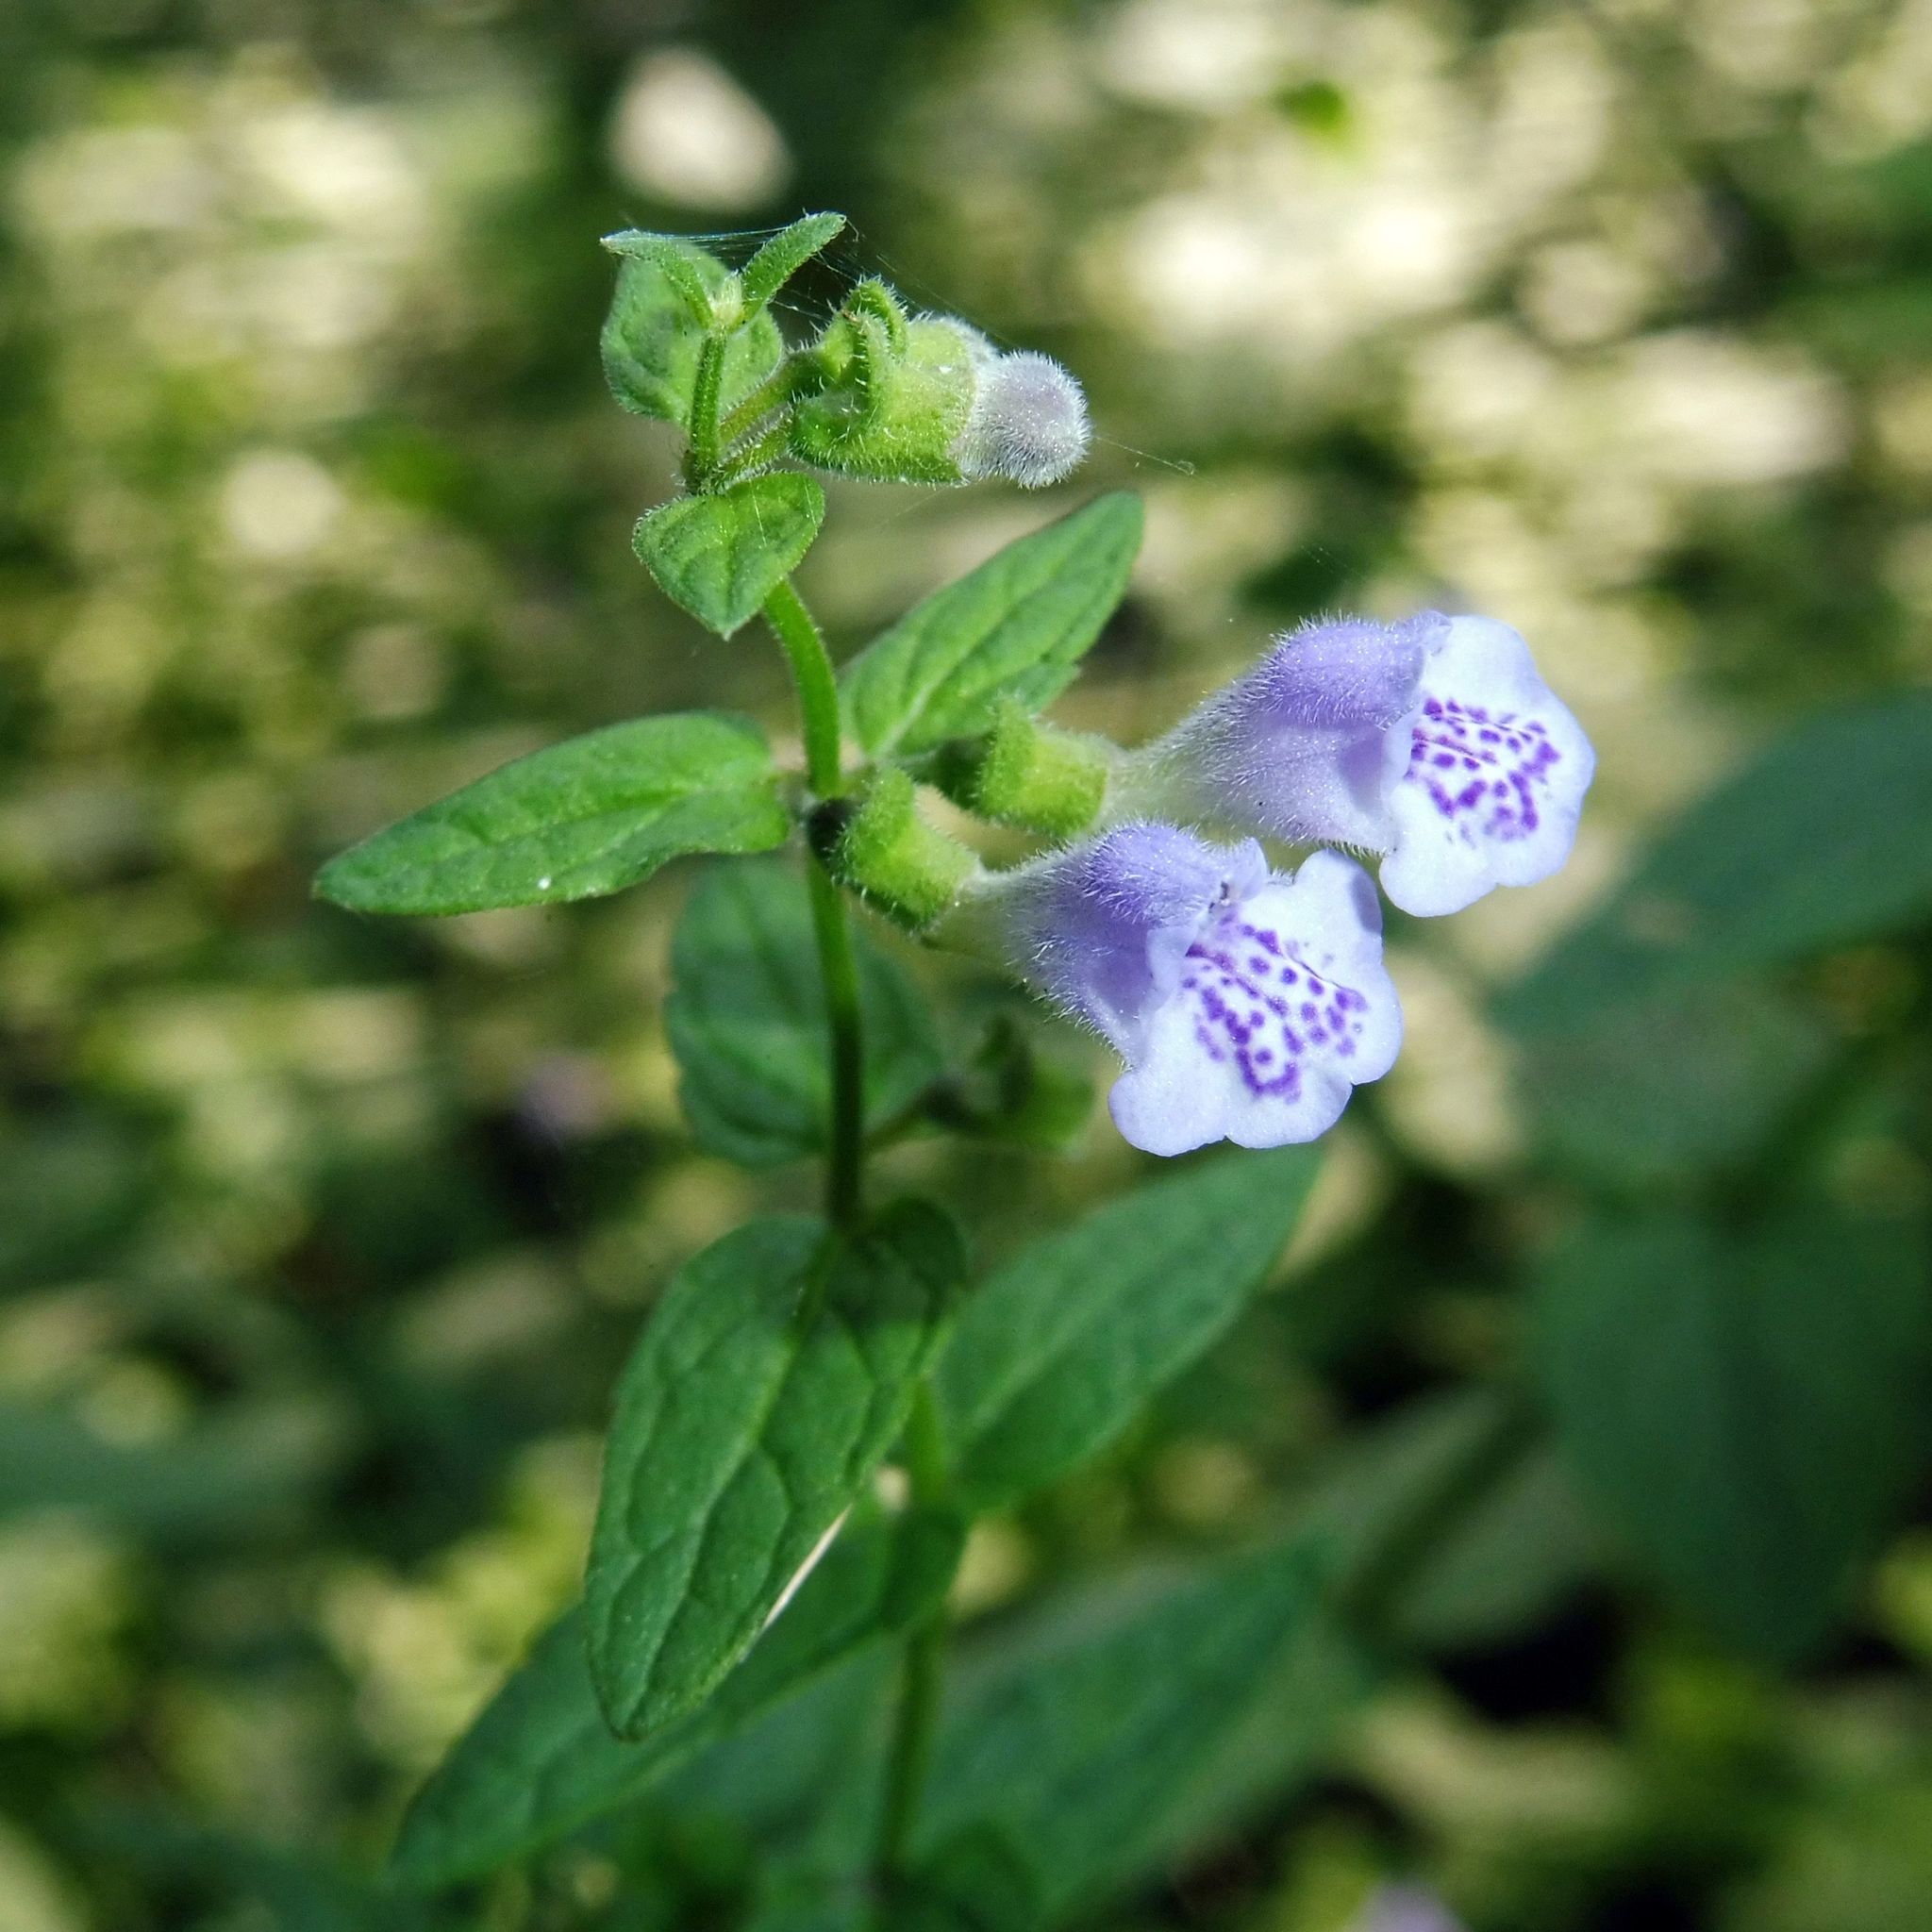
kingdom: Plantae
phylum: Tracheophyta
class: Magnoliopsida
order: Lamiales
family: Lamiaceae
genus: Scutellaria
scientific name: Scutellaria galericulata
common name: Skullcap
